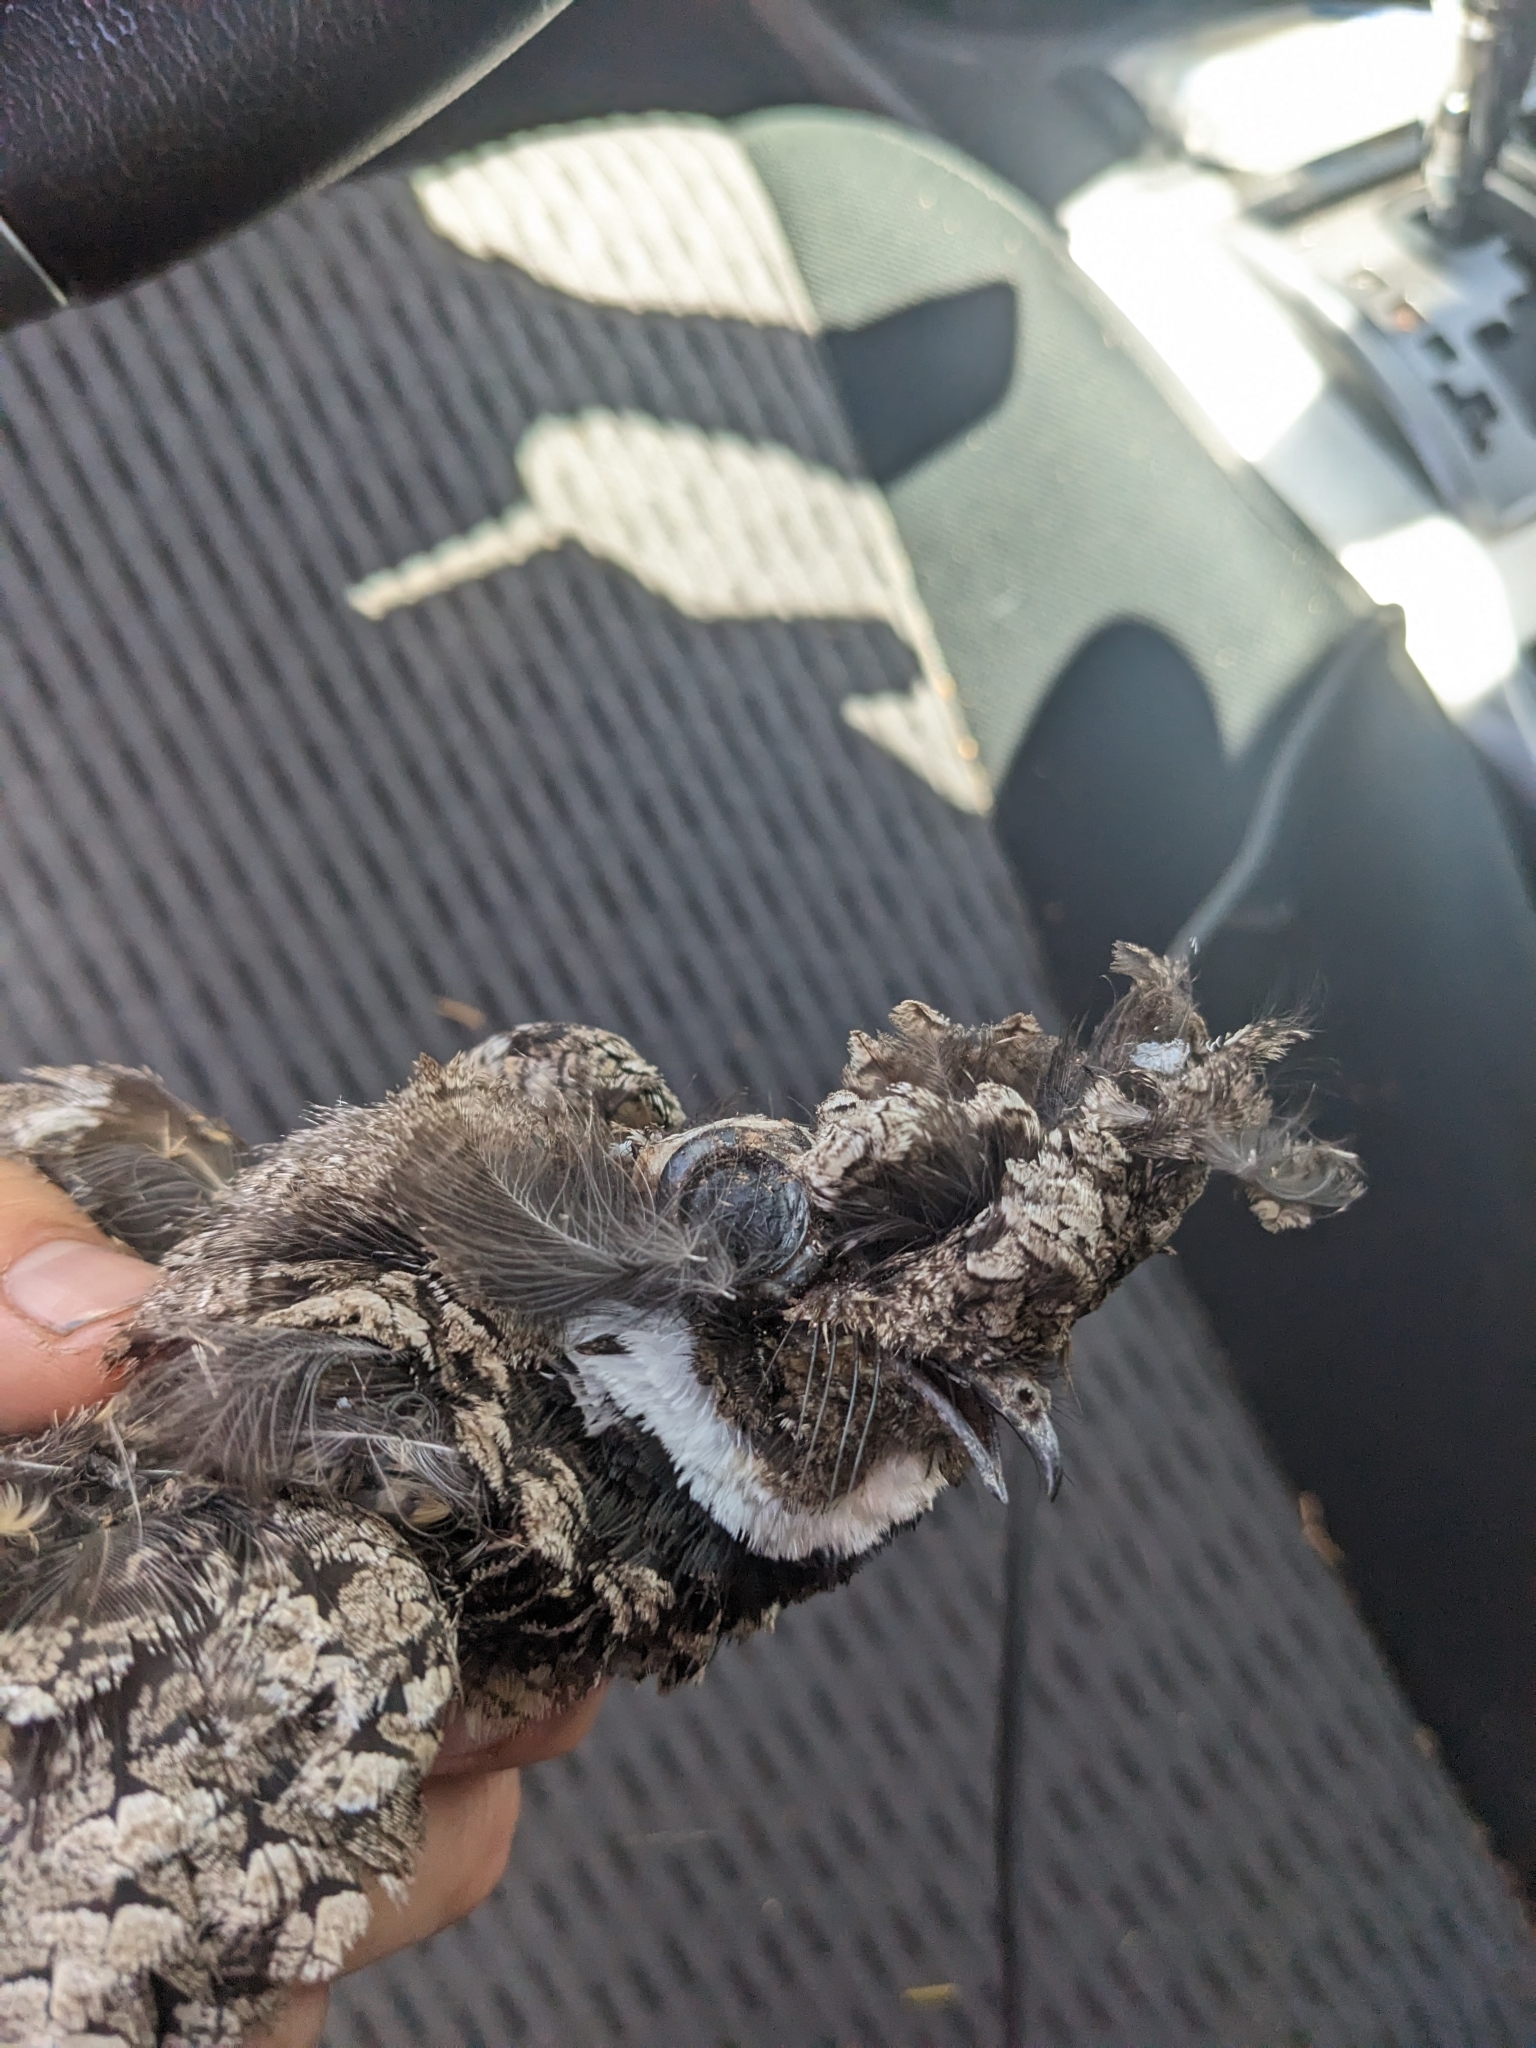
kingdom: Animalia
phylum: Chordata
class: Aves
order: Caprimulgiformes
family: Caprimulgidae
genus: Phalaenoptilus
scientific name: Phalaenoptilus nuttallii
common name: Common poorwill
